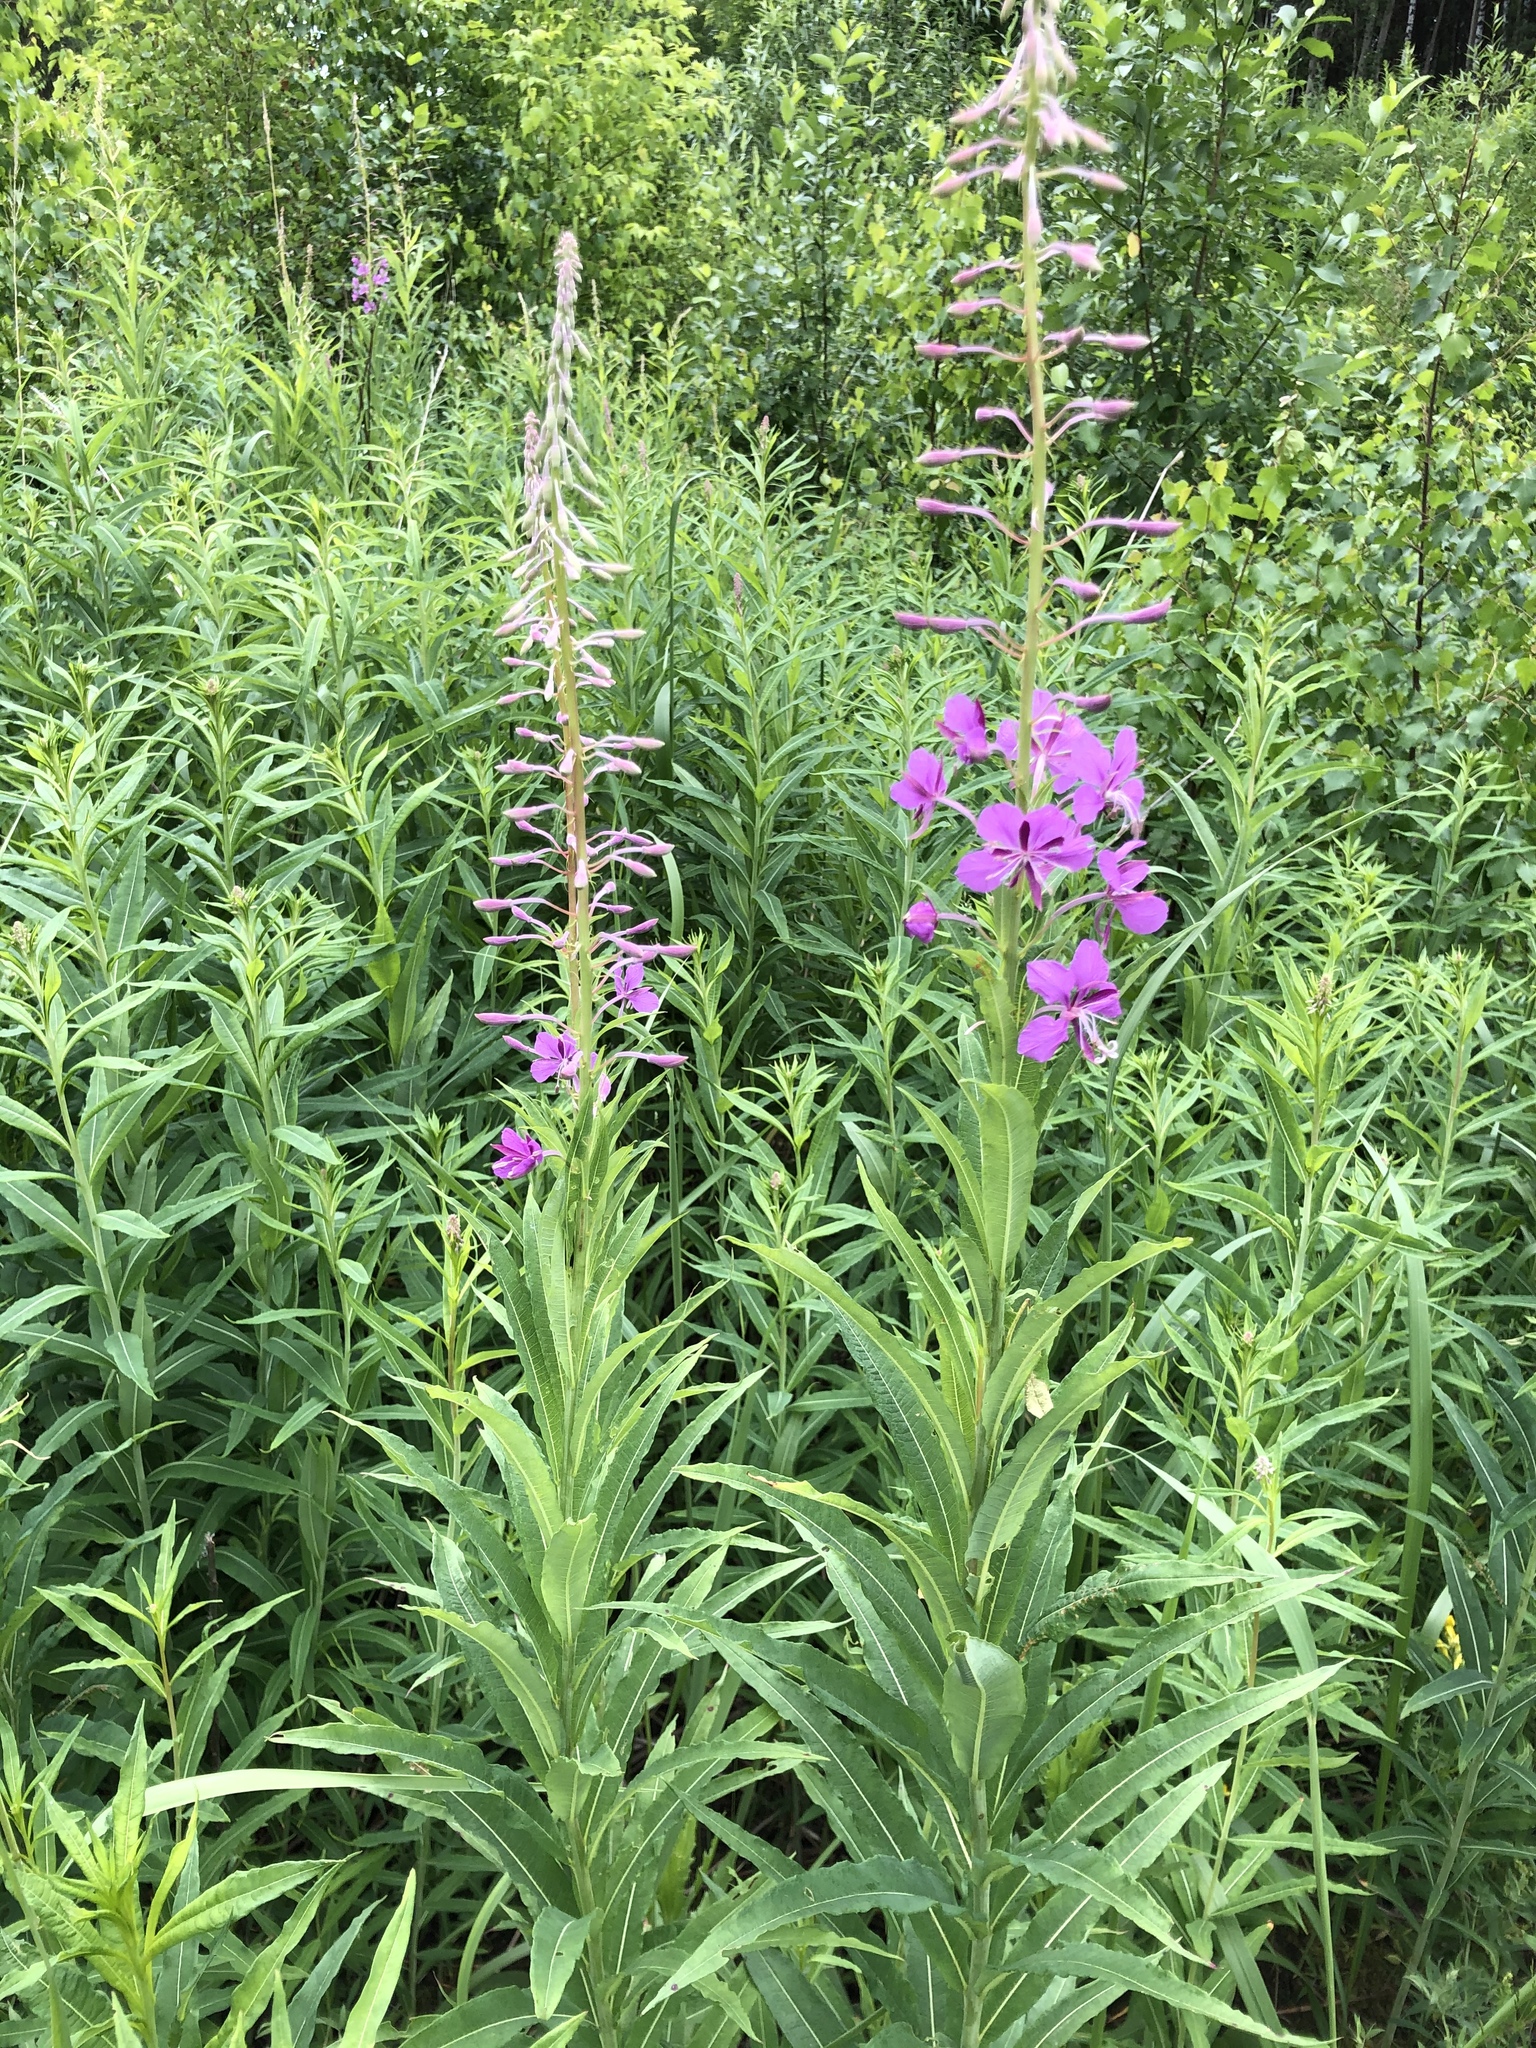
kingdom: Plantae
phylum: Tracheophyta
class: Magnoliopsida
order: Myrtales
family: Onagraceae
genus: Chamaenerion
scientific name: Chamaenerion angustifolium
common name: Fireweed
